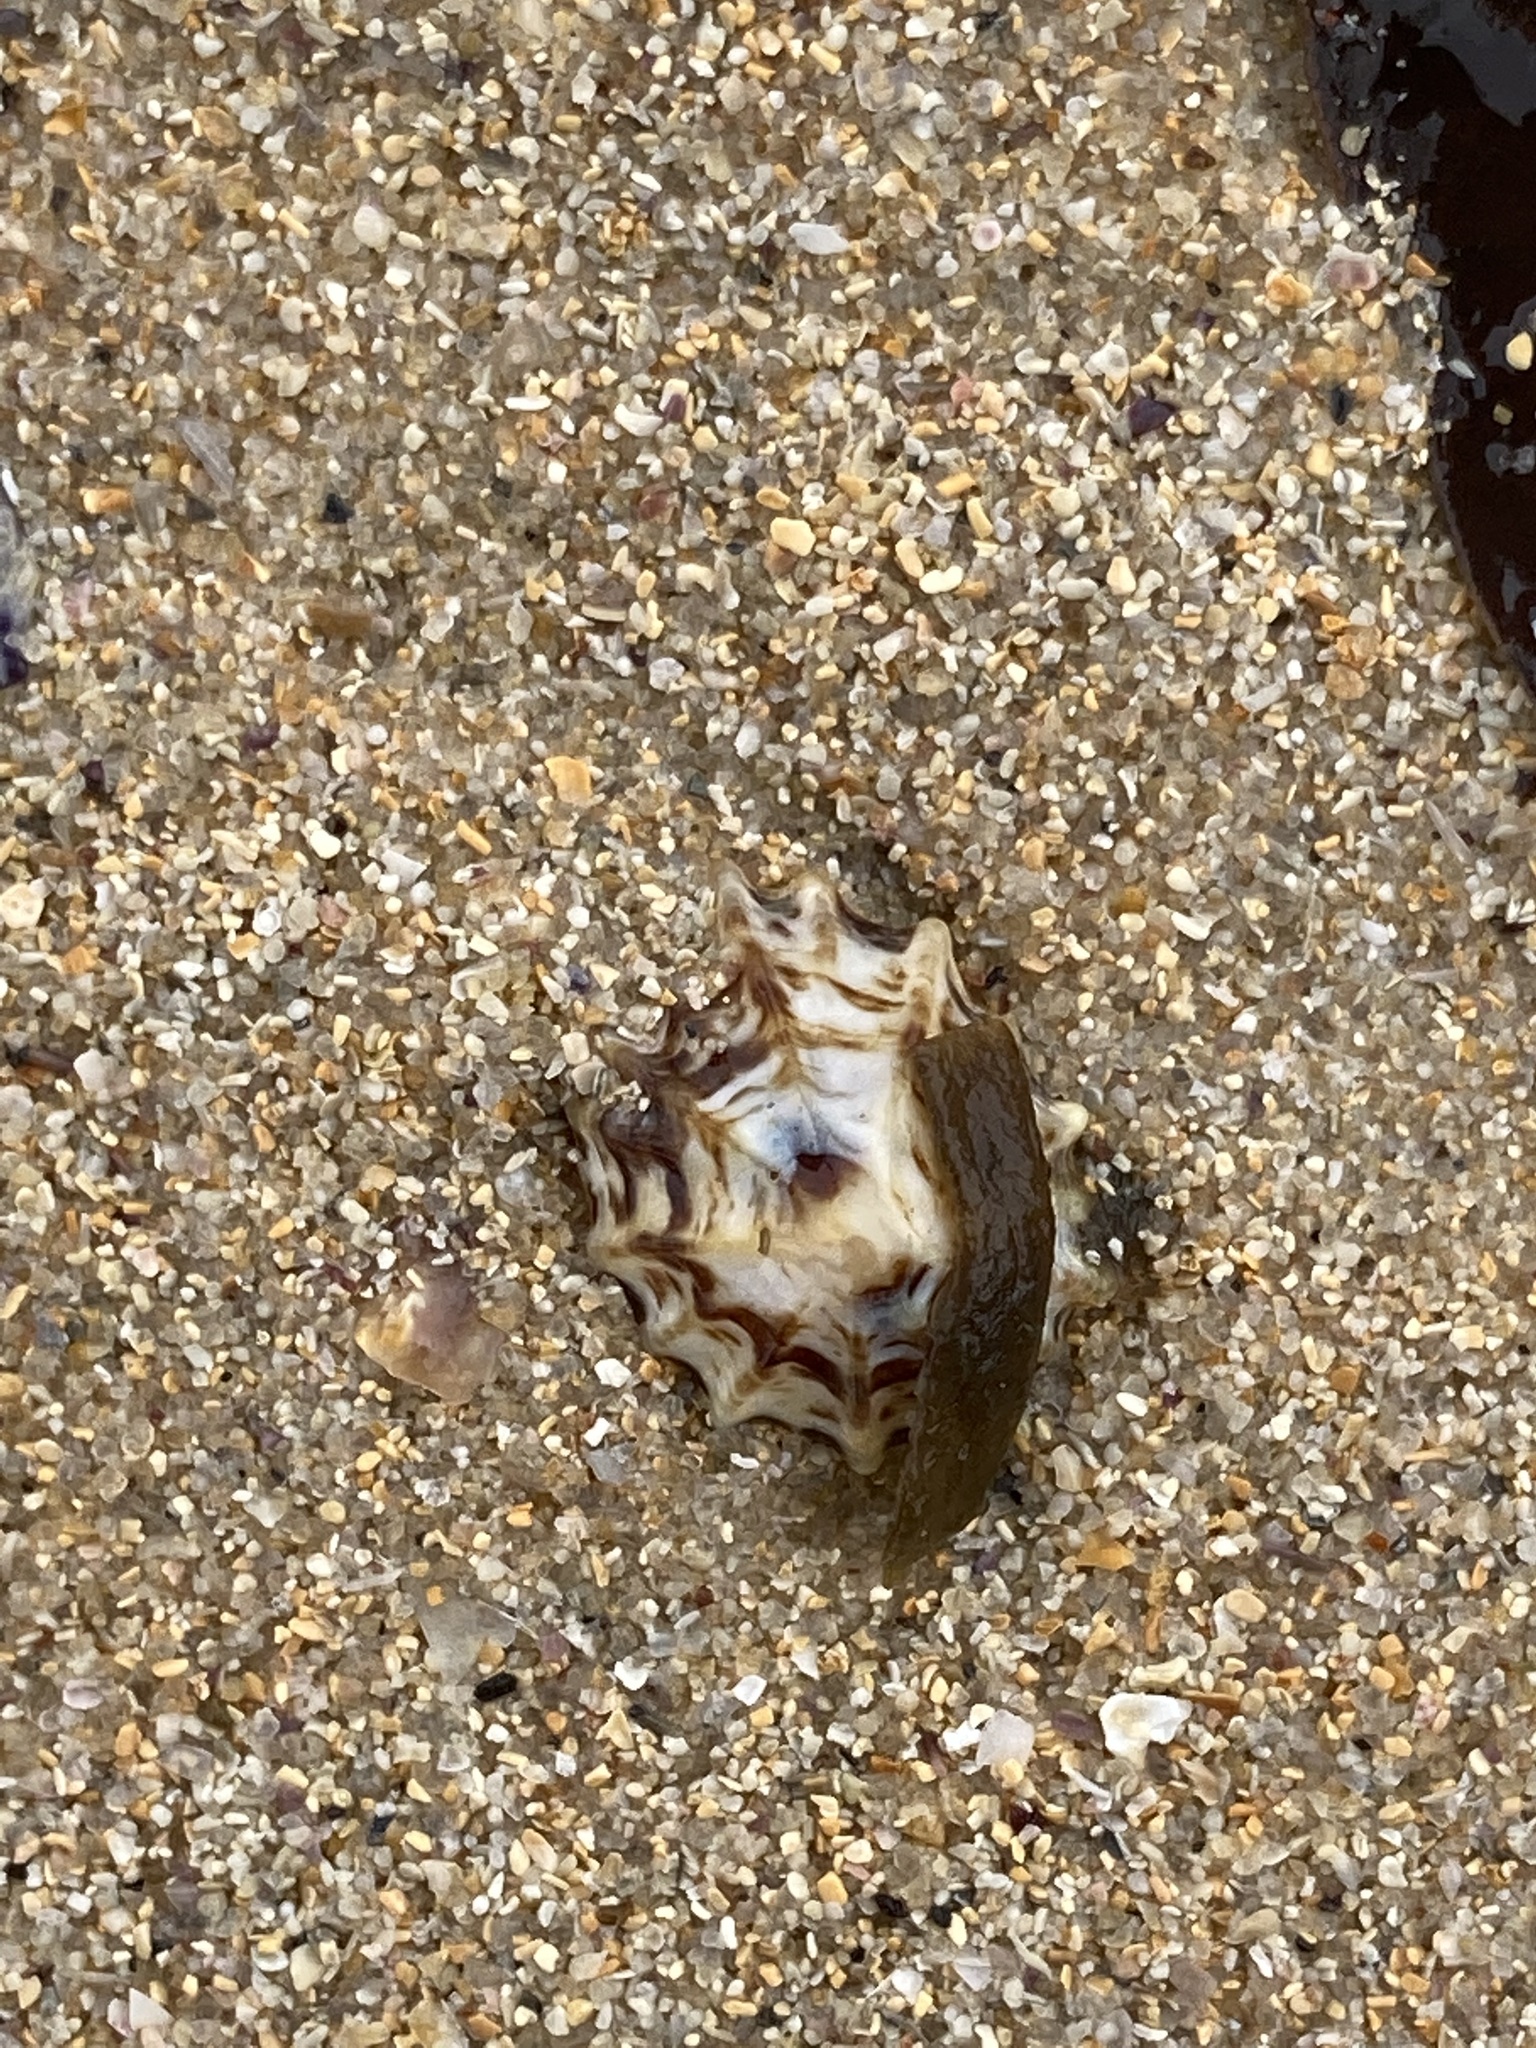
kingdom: Animalia
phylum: Mollusca
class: Gastropoda
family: Lottiidae
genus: Patelloida
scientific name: Patelloida alticostata
